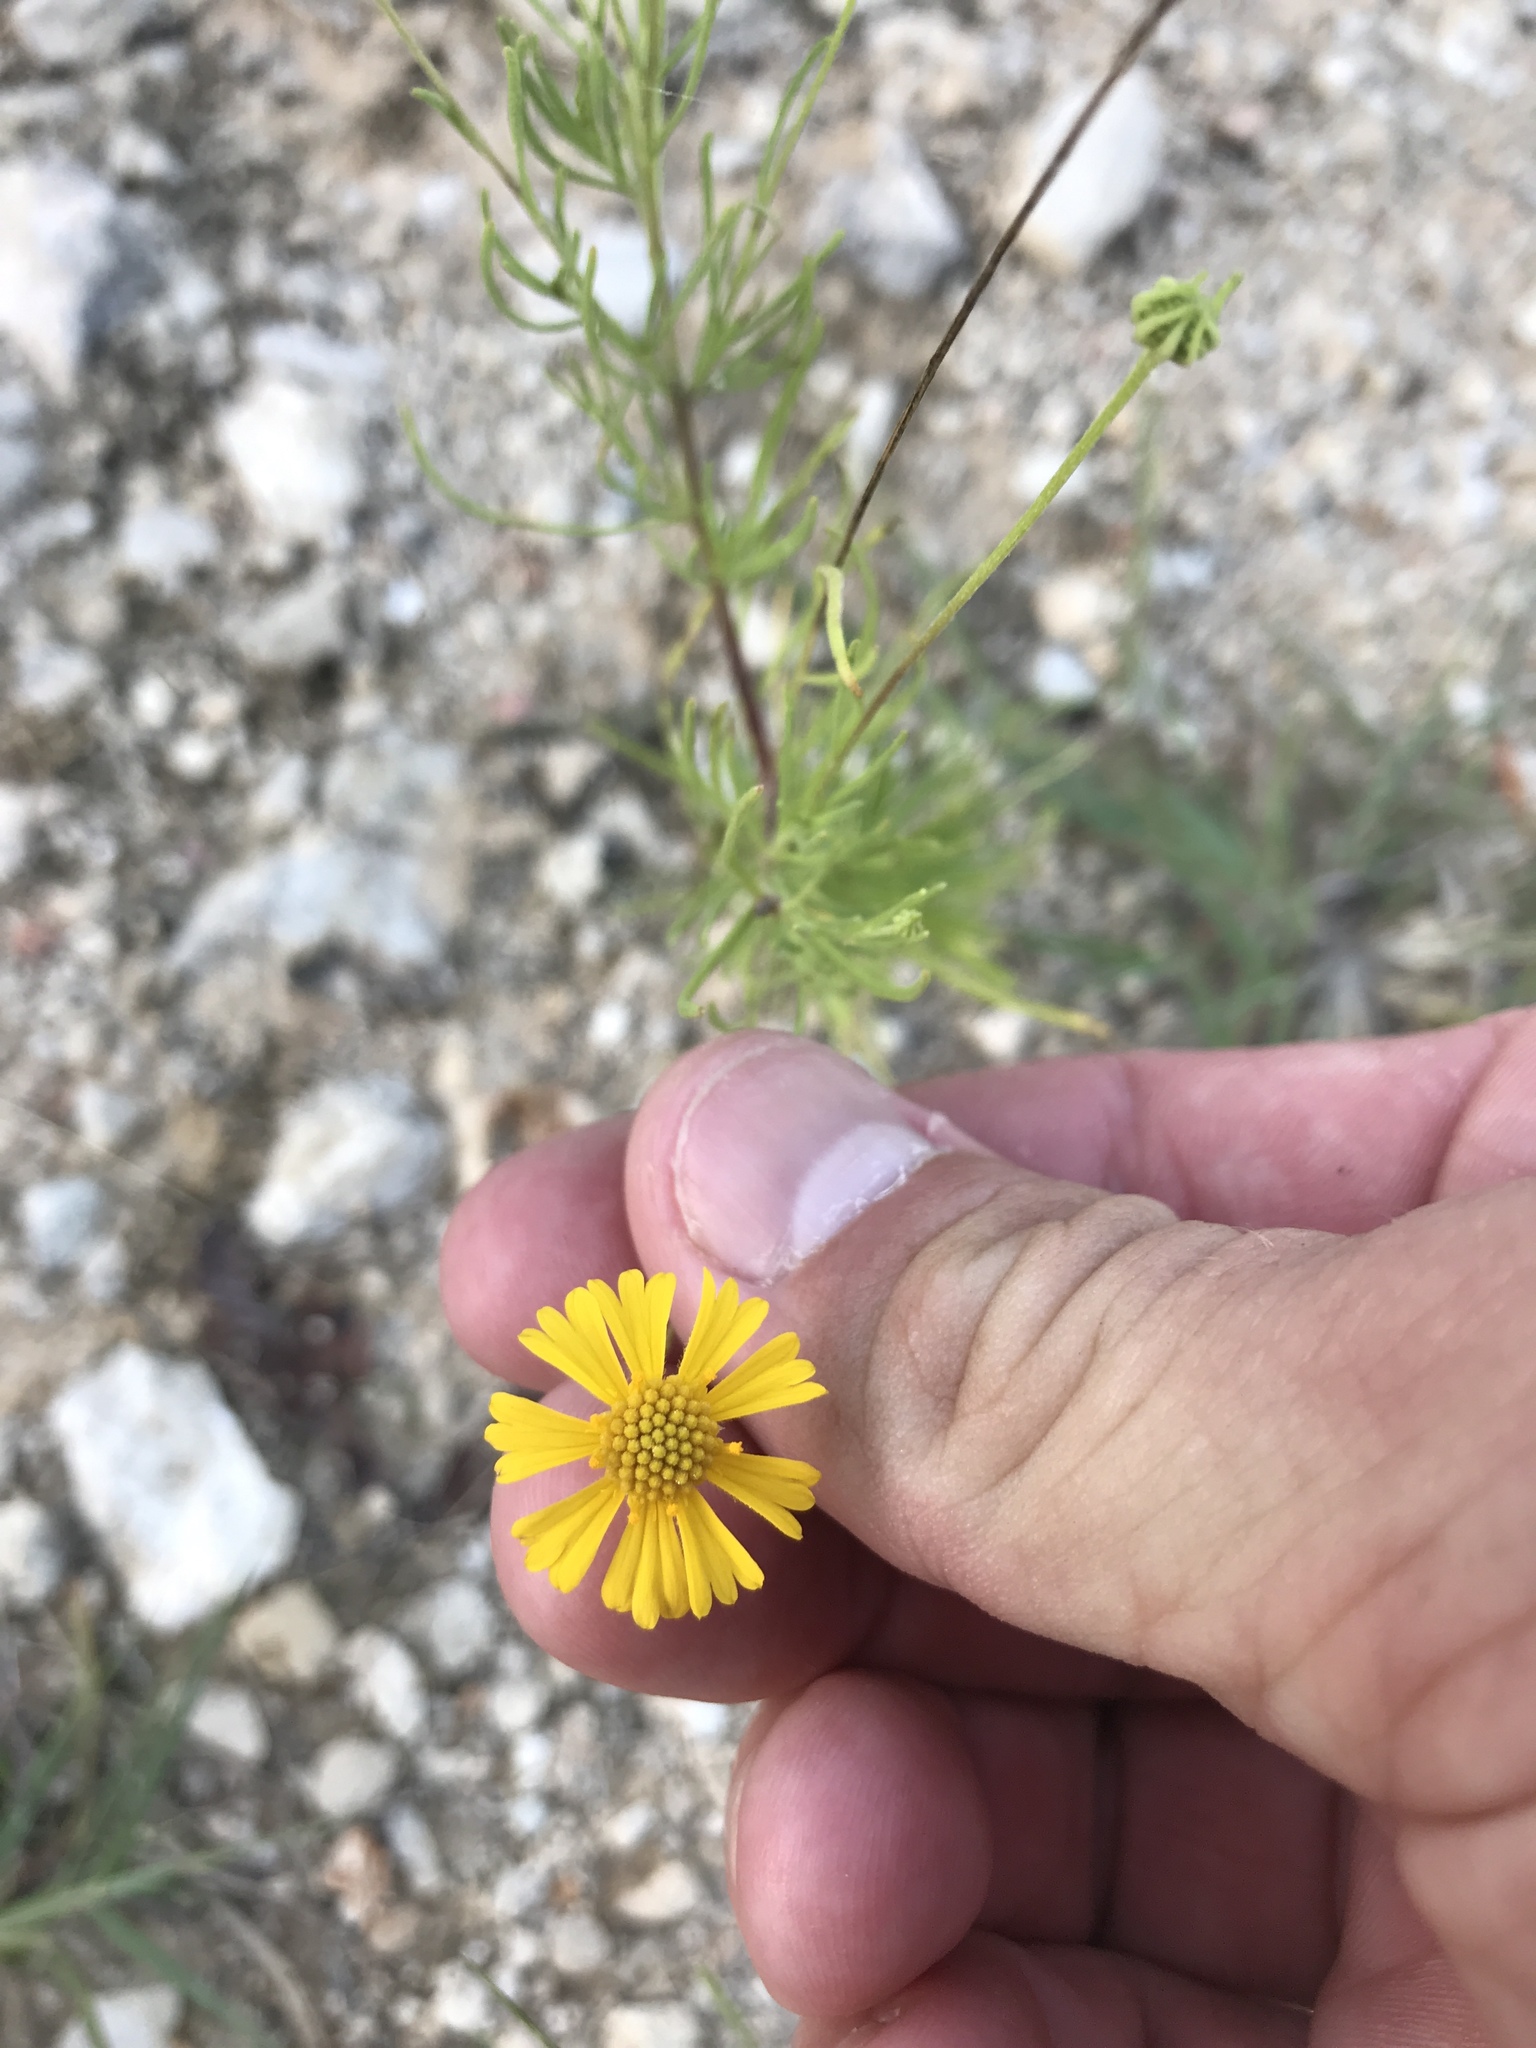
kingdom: Plantae
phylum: Tracheophyta
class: Magnoliopsida
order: Asterales
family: Asteraceae
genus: Helenium
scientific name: Helenium amarum
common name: Bitter sneezeweed
